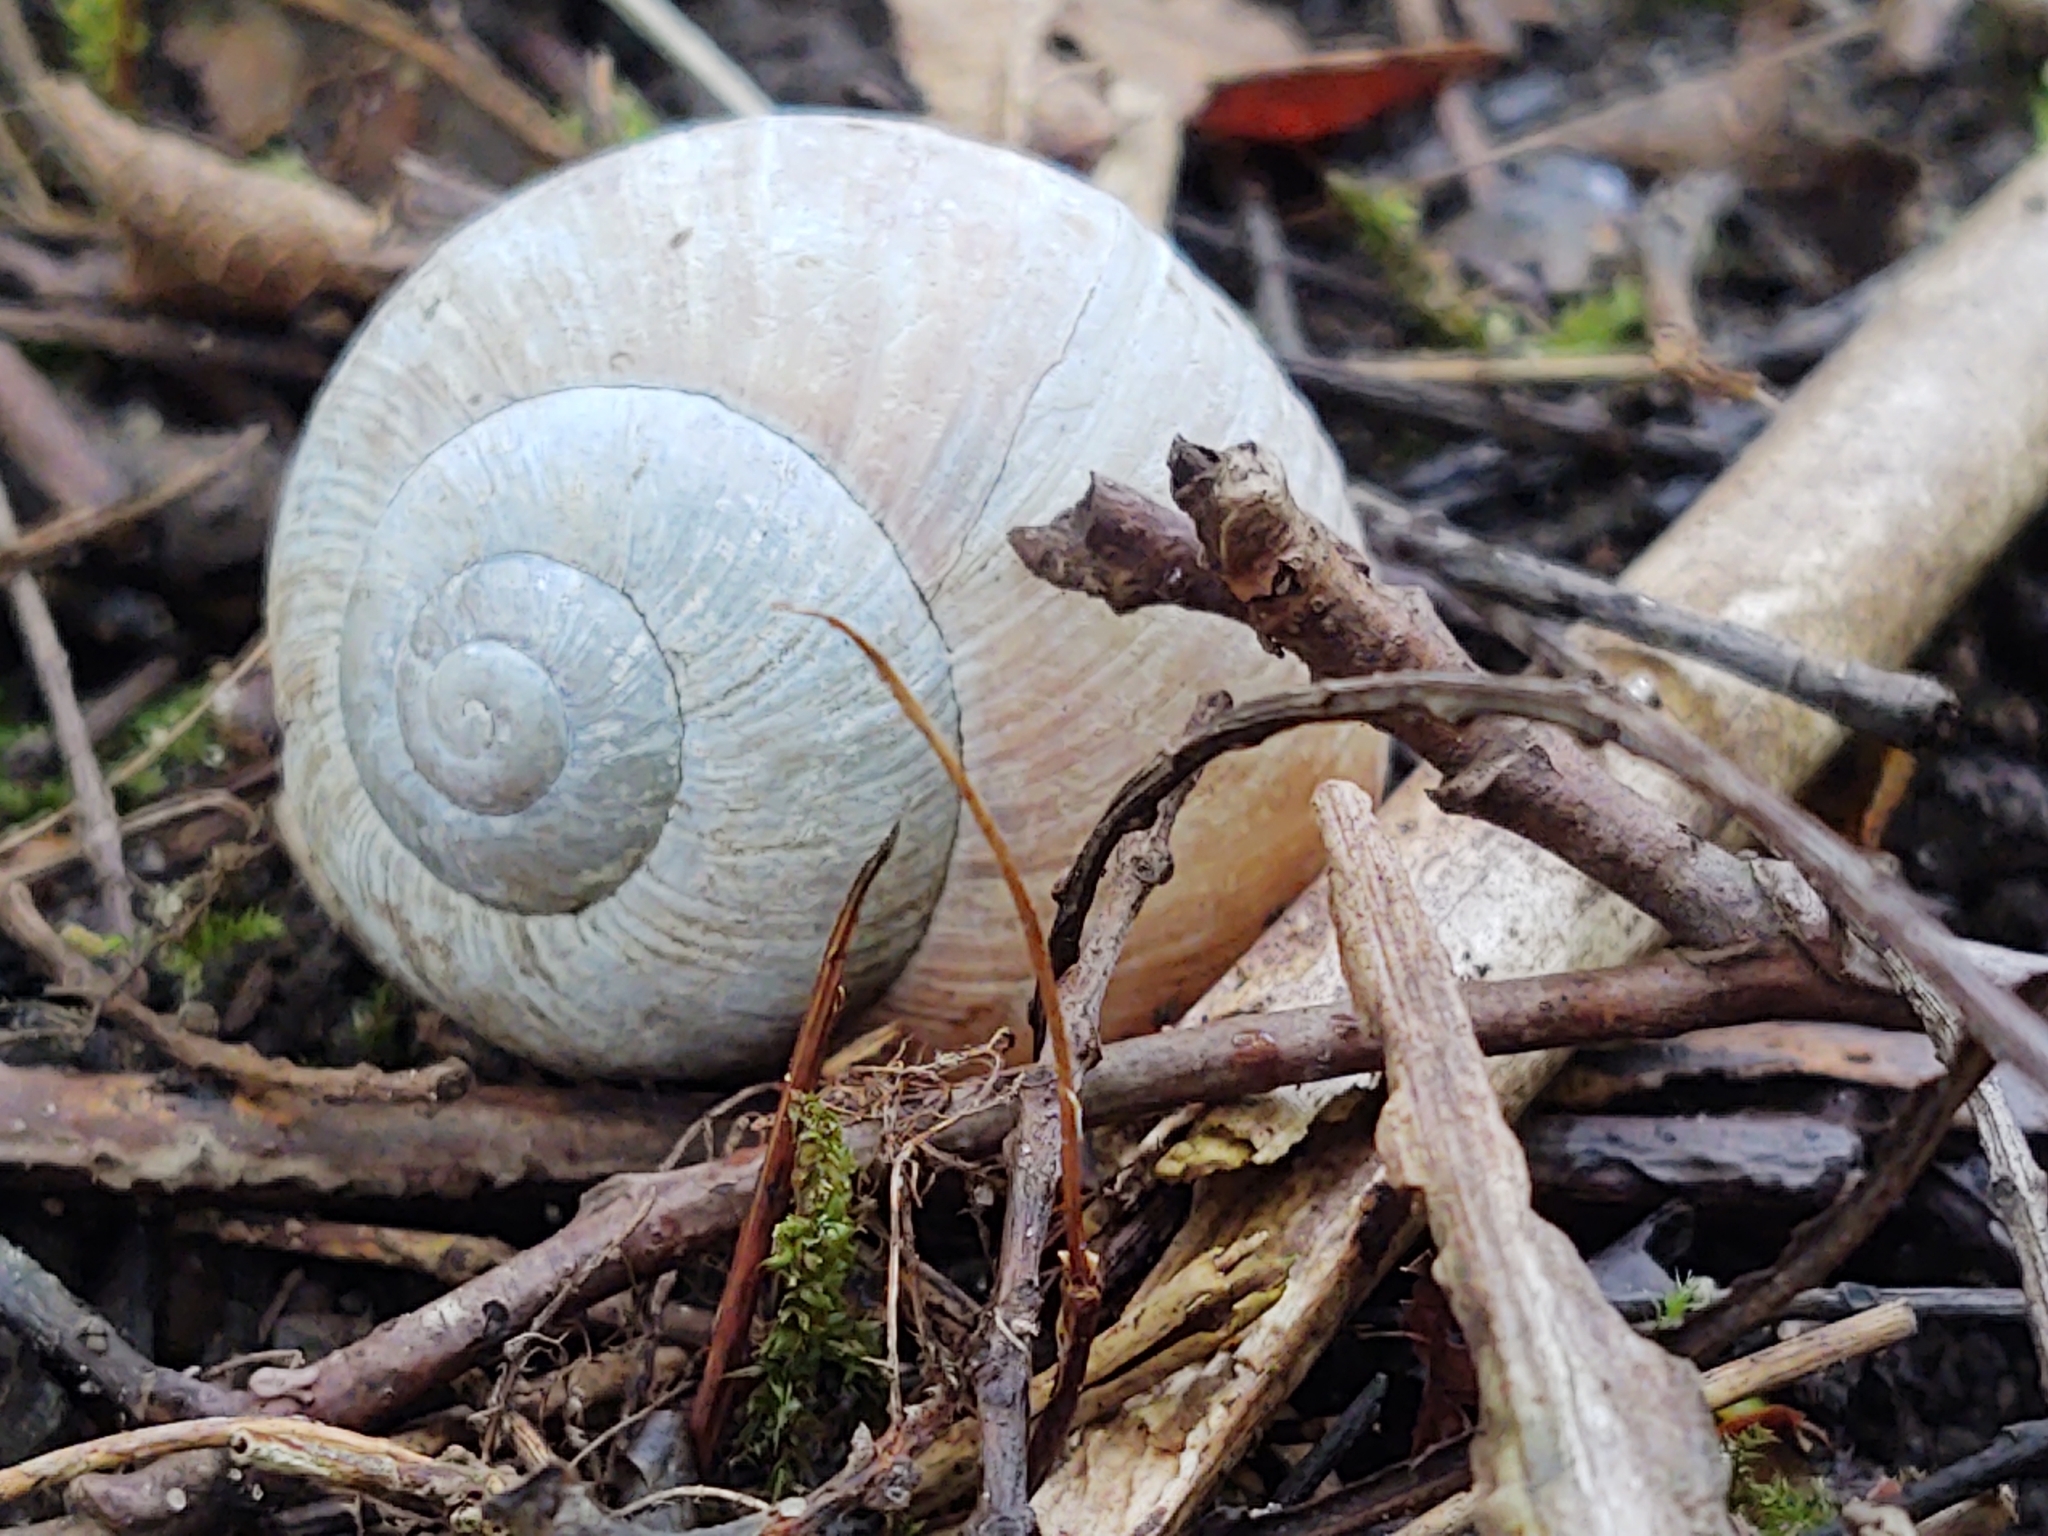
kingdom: Animalia
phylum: Mollusca
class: Gastropoda
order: Stylommatophora
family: Helicidae
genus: Helix
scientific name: Helix pomatia
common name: Roman snail
